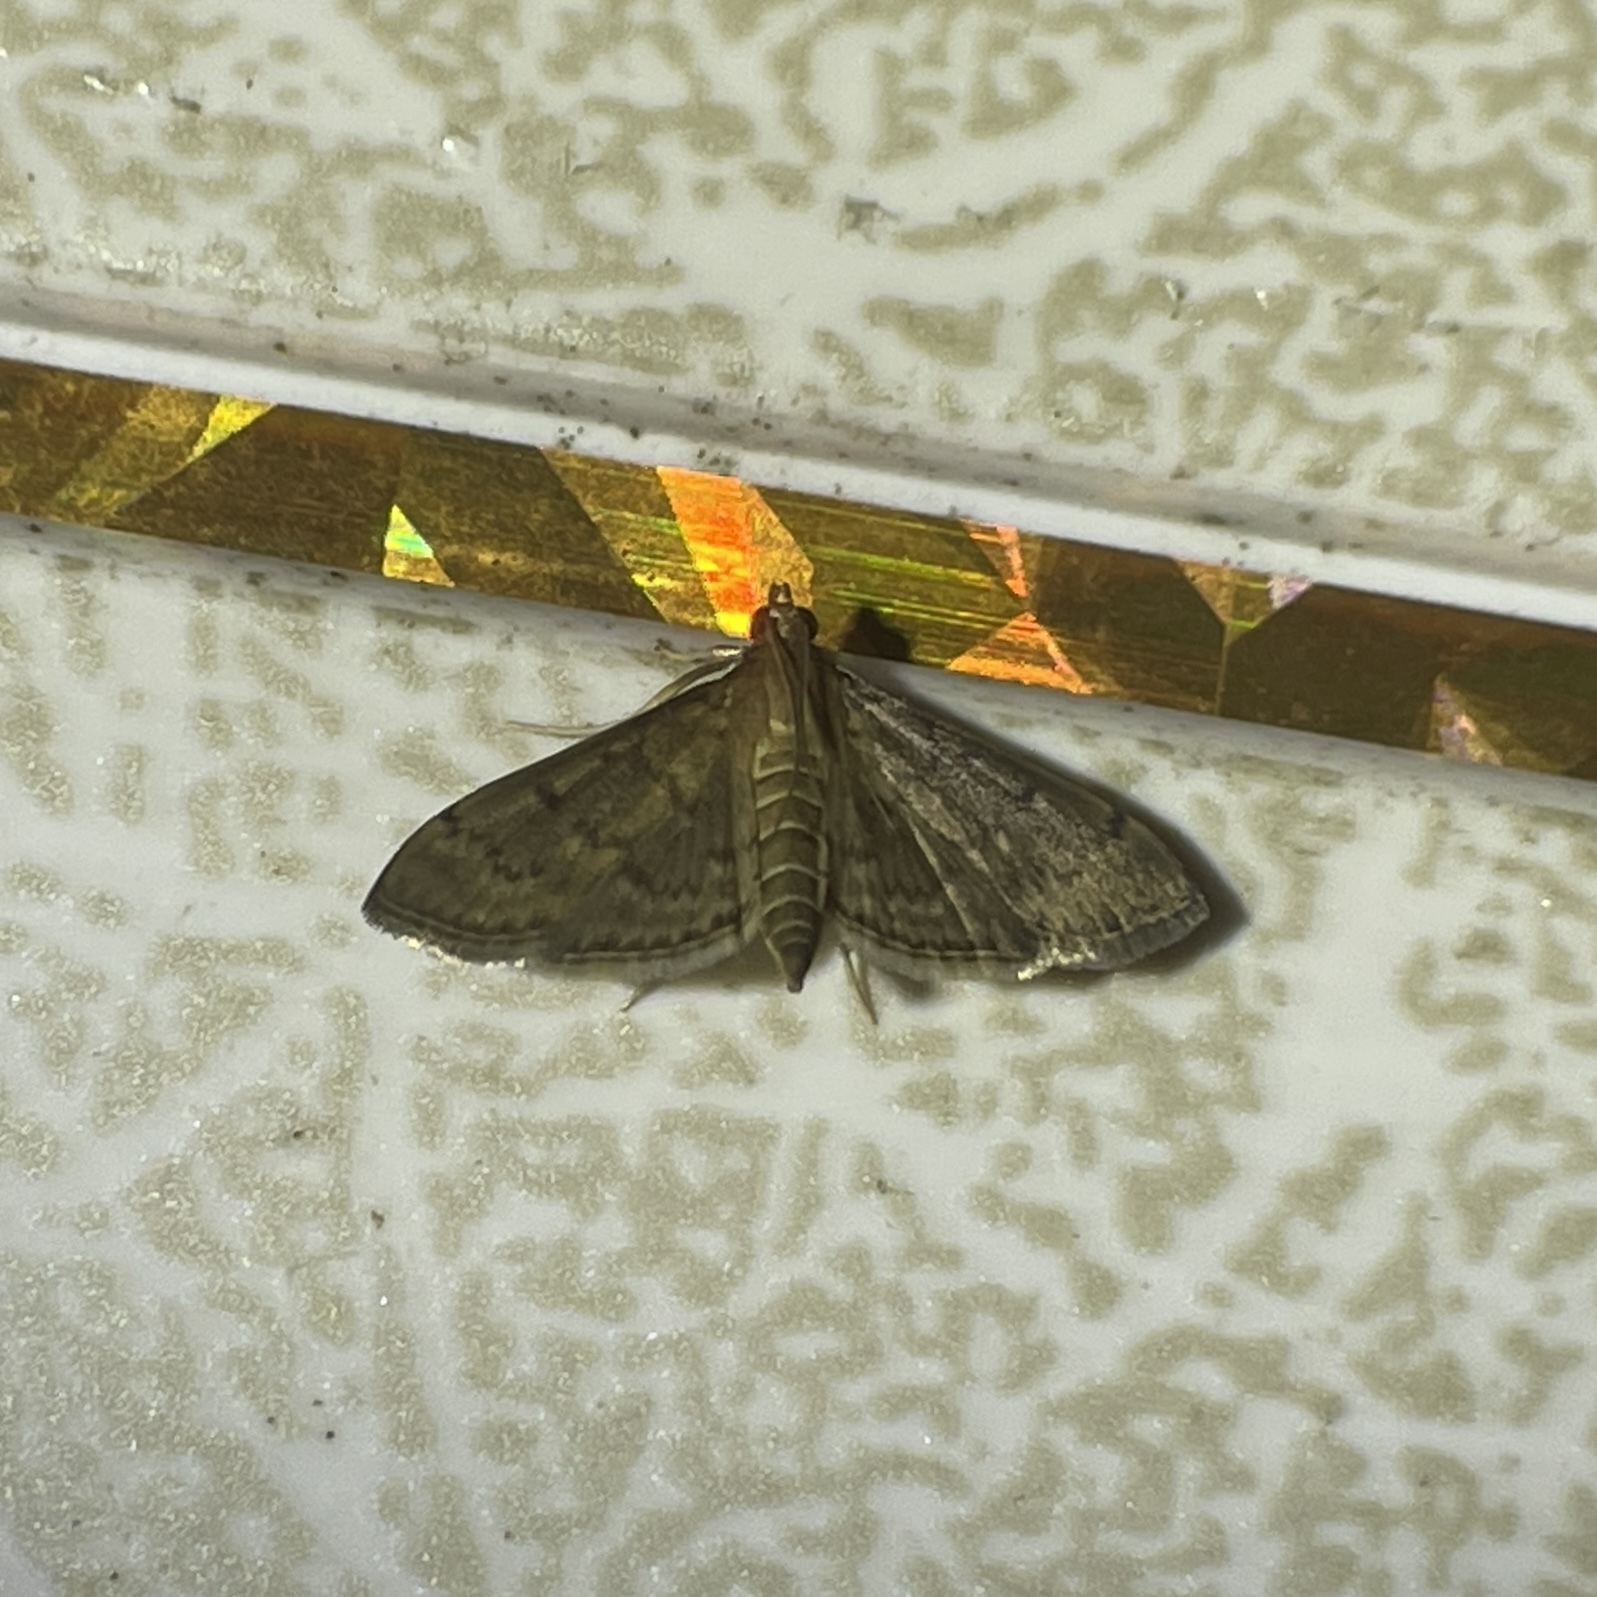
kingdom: Animalia
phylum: Arthropoda
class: Insecta
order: Lepidoptera
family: Crambidae
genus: Herpetogramma
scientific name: Herpetogramma phaeopteralis
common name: Dusky herpetogramma moth
